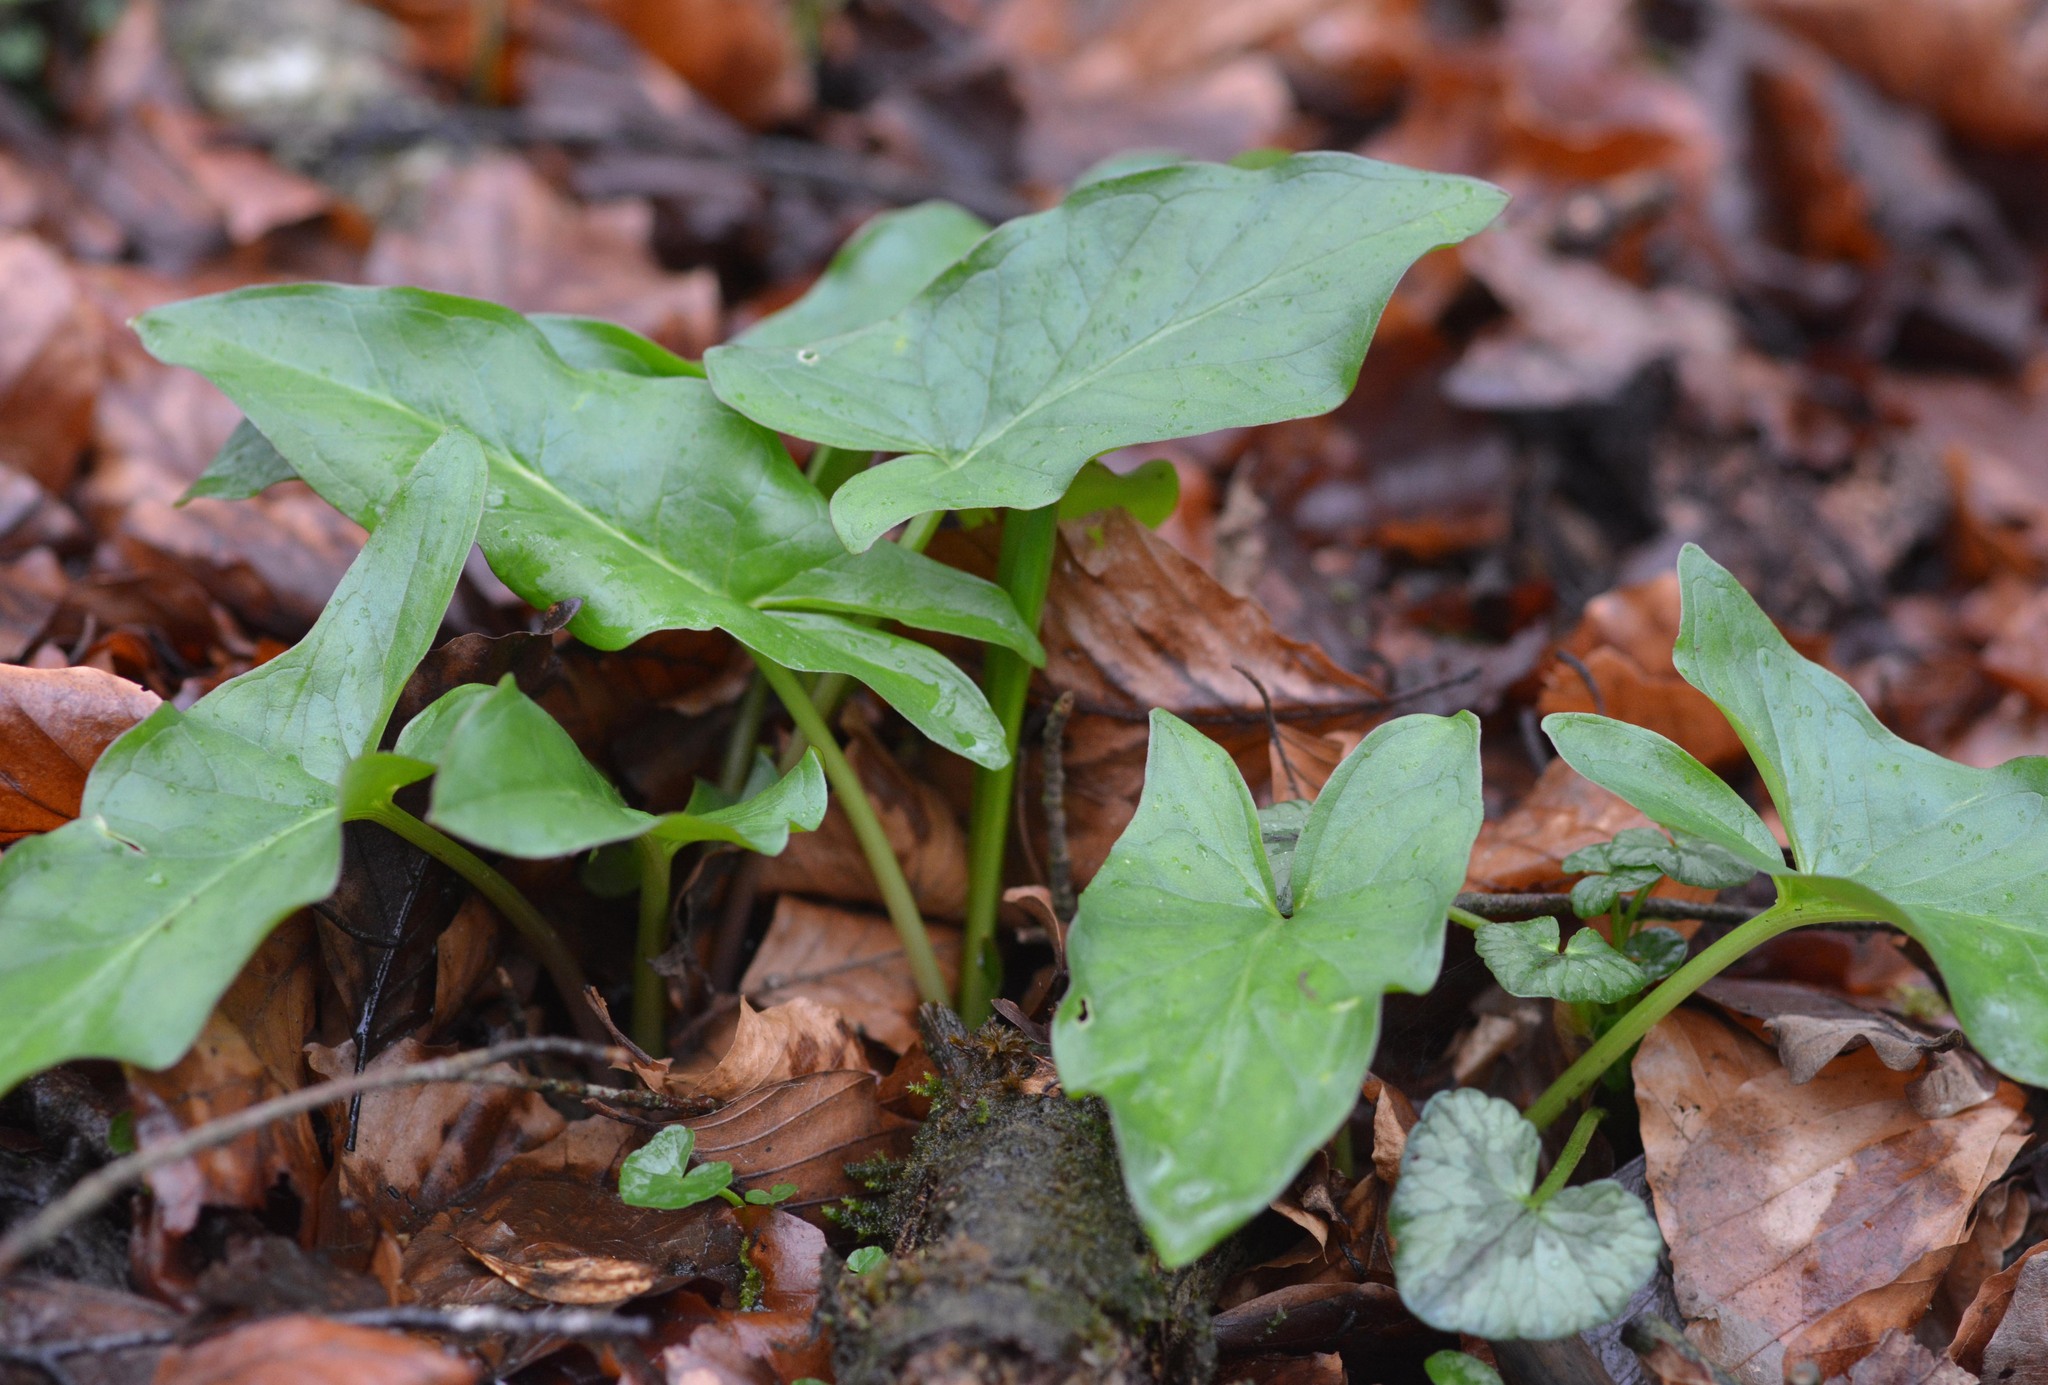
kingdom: Plantae
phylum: Tracheophyta
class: Liliopsida
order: Alismatales
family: Araceae
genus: Arum
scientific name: Arum maculatum
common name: Lords-and-ladies
